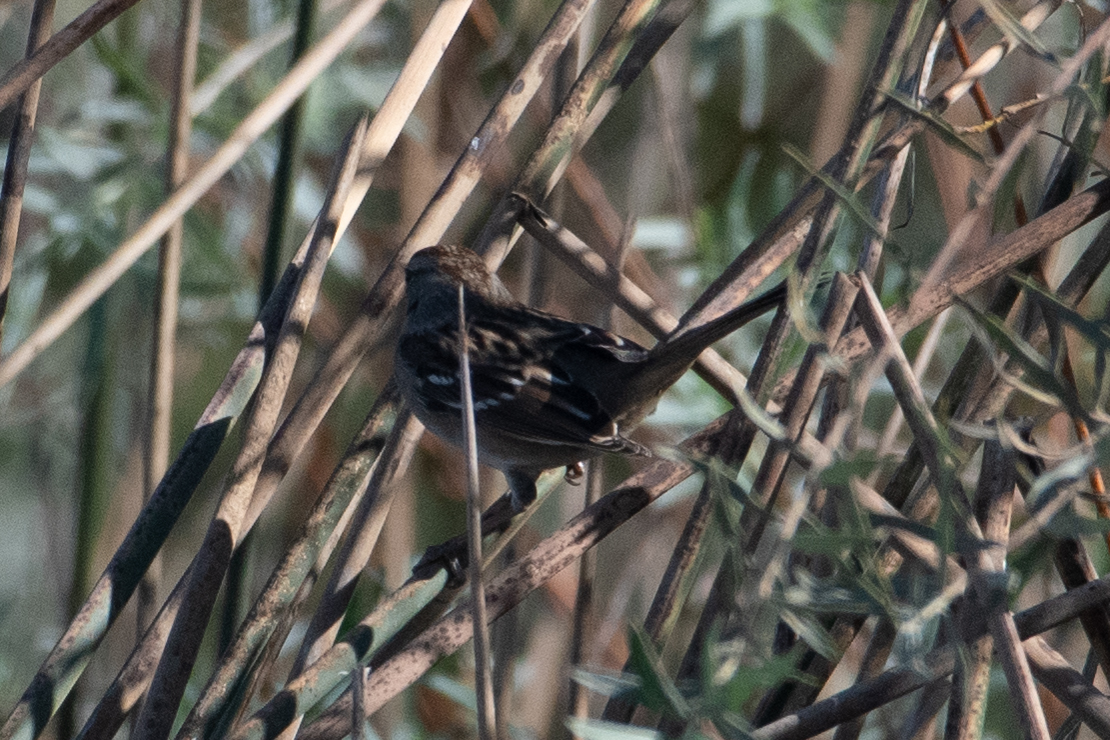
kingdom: Animalia
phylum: Chordata
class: Aves
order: Passeriformes
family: Passerellidae
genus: Zonotrichia
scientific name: Zonotrichia leucophrys
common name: White-crowned sparrow
